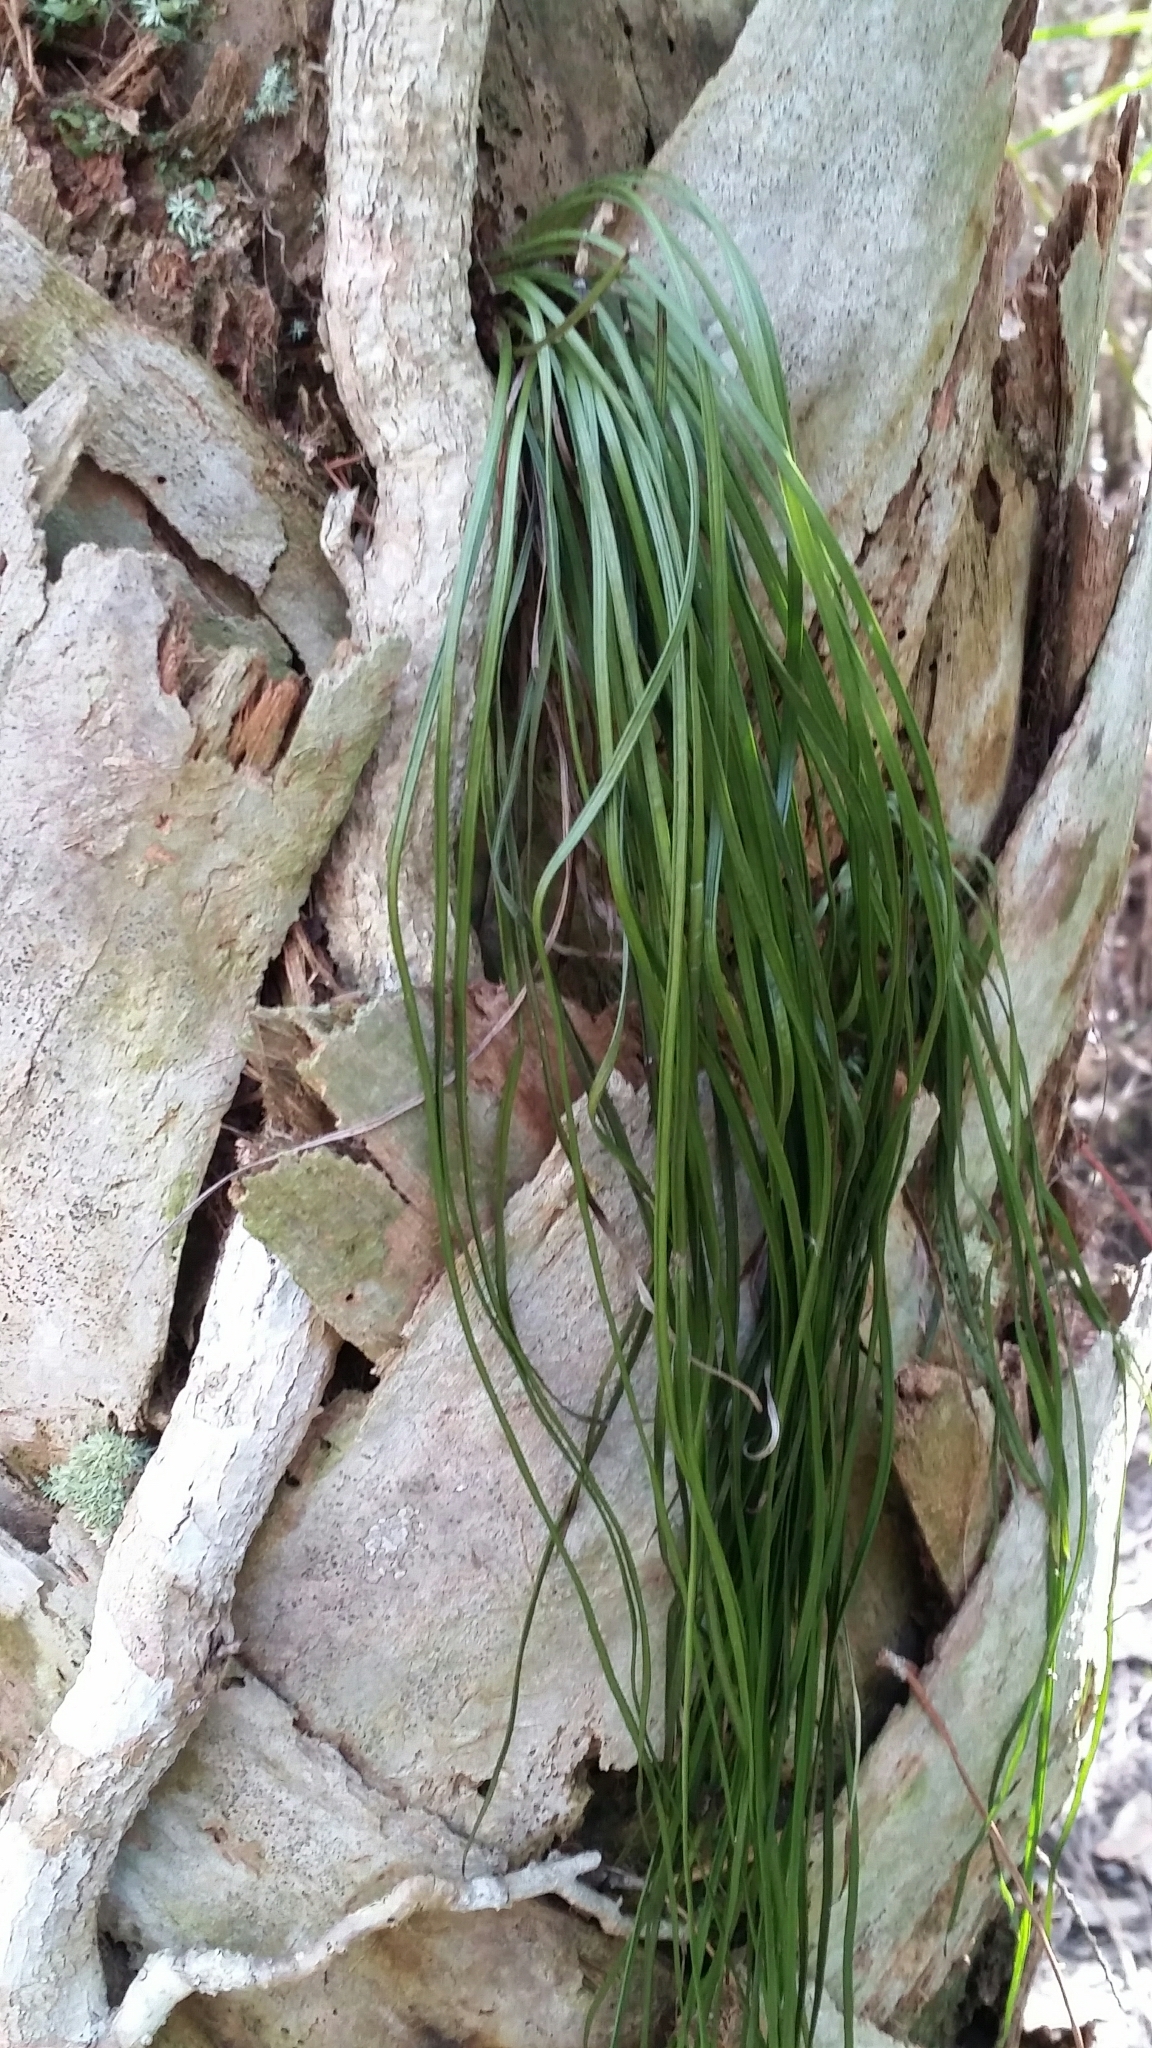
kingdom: Plantae
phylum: Tracheophyta
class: Polypodiopsida
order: Polypodiales
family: Pteridaceae
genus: Vittaria
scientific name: Vittaria lineata
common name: Shoestring fern
